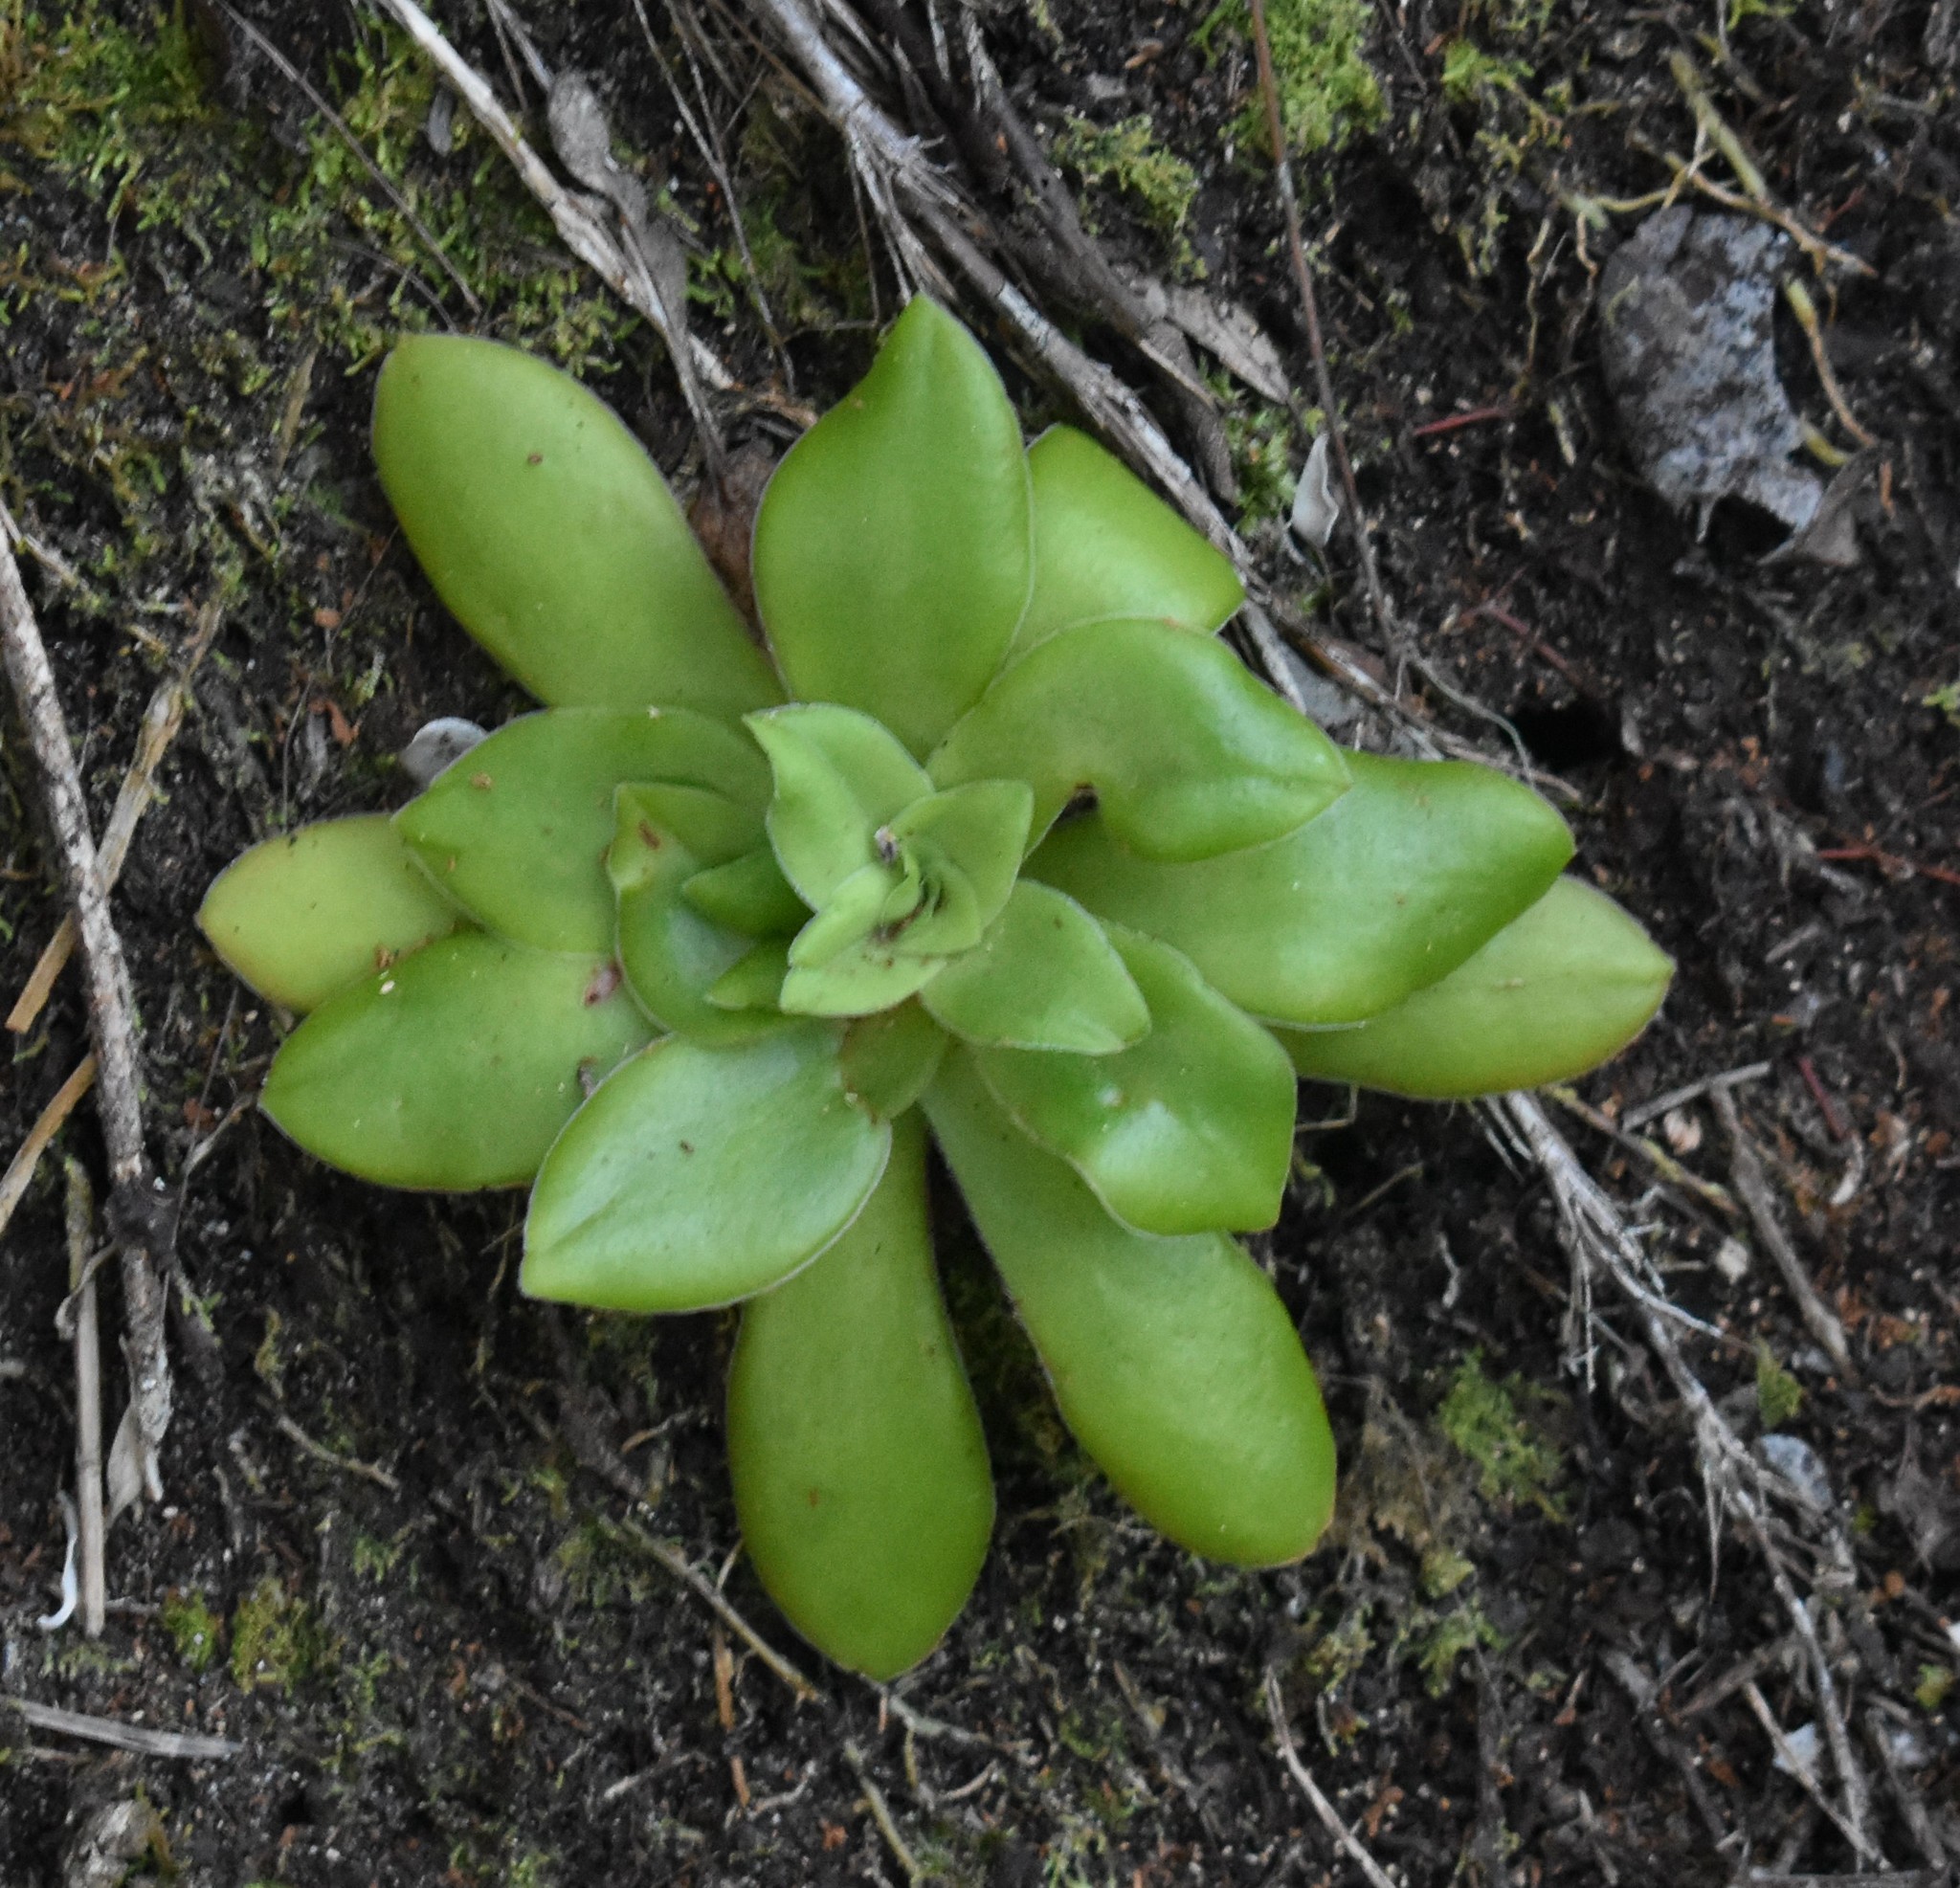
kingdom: Plantae
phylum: Tracheophyta
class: Magnoliopsida
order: Saxifragales
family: Crassulaceae
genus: Crassula
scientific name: Crassula orbicularis
